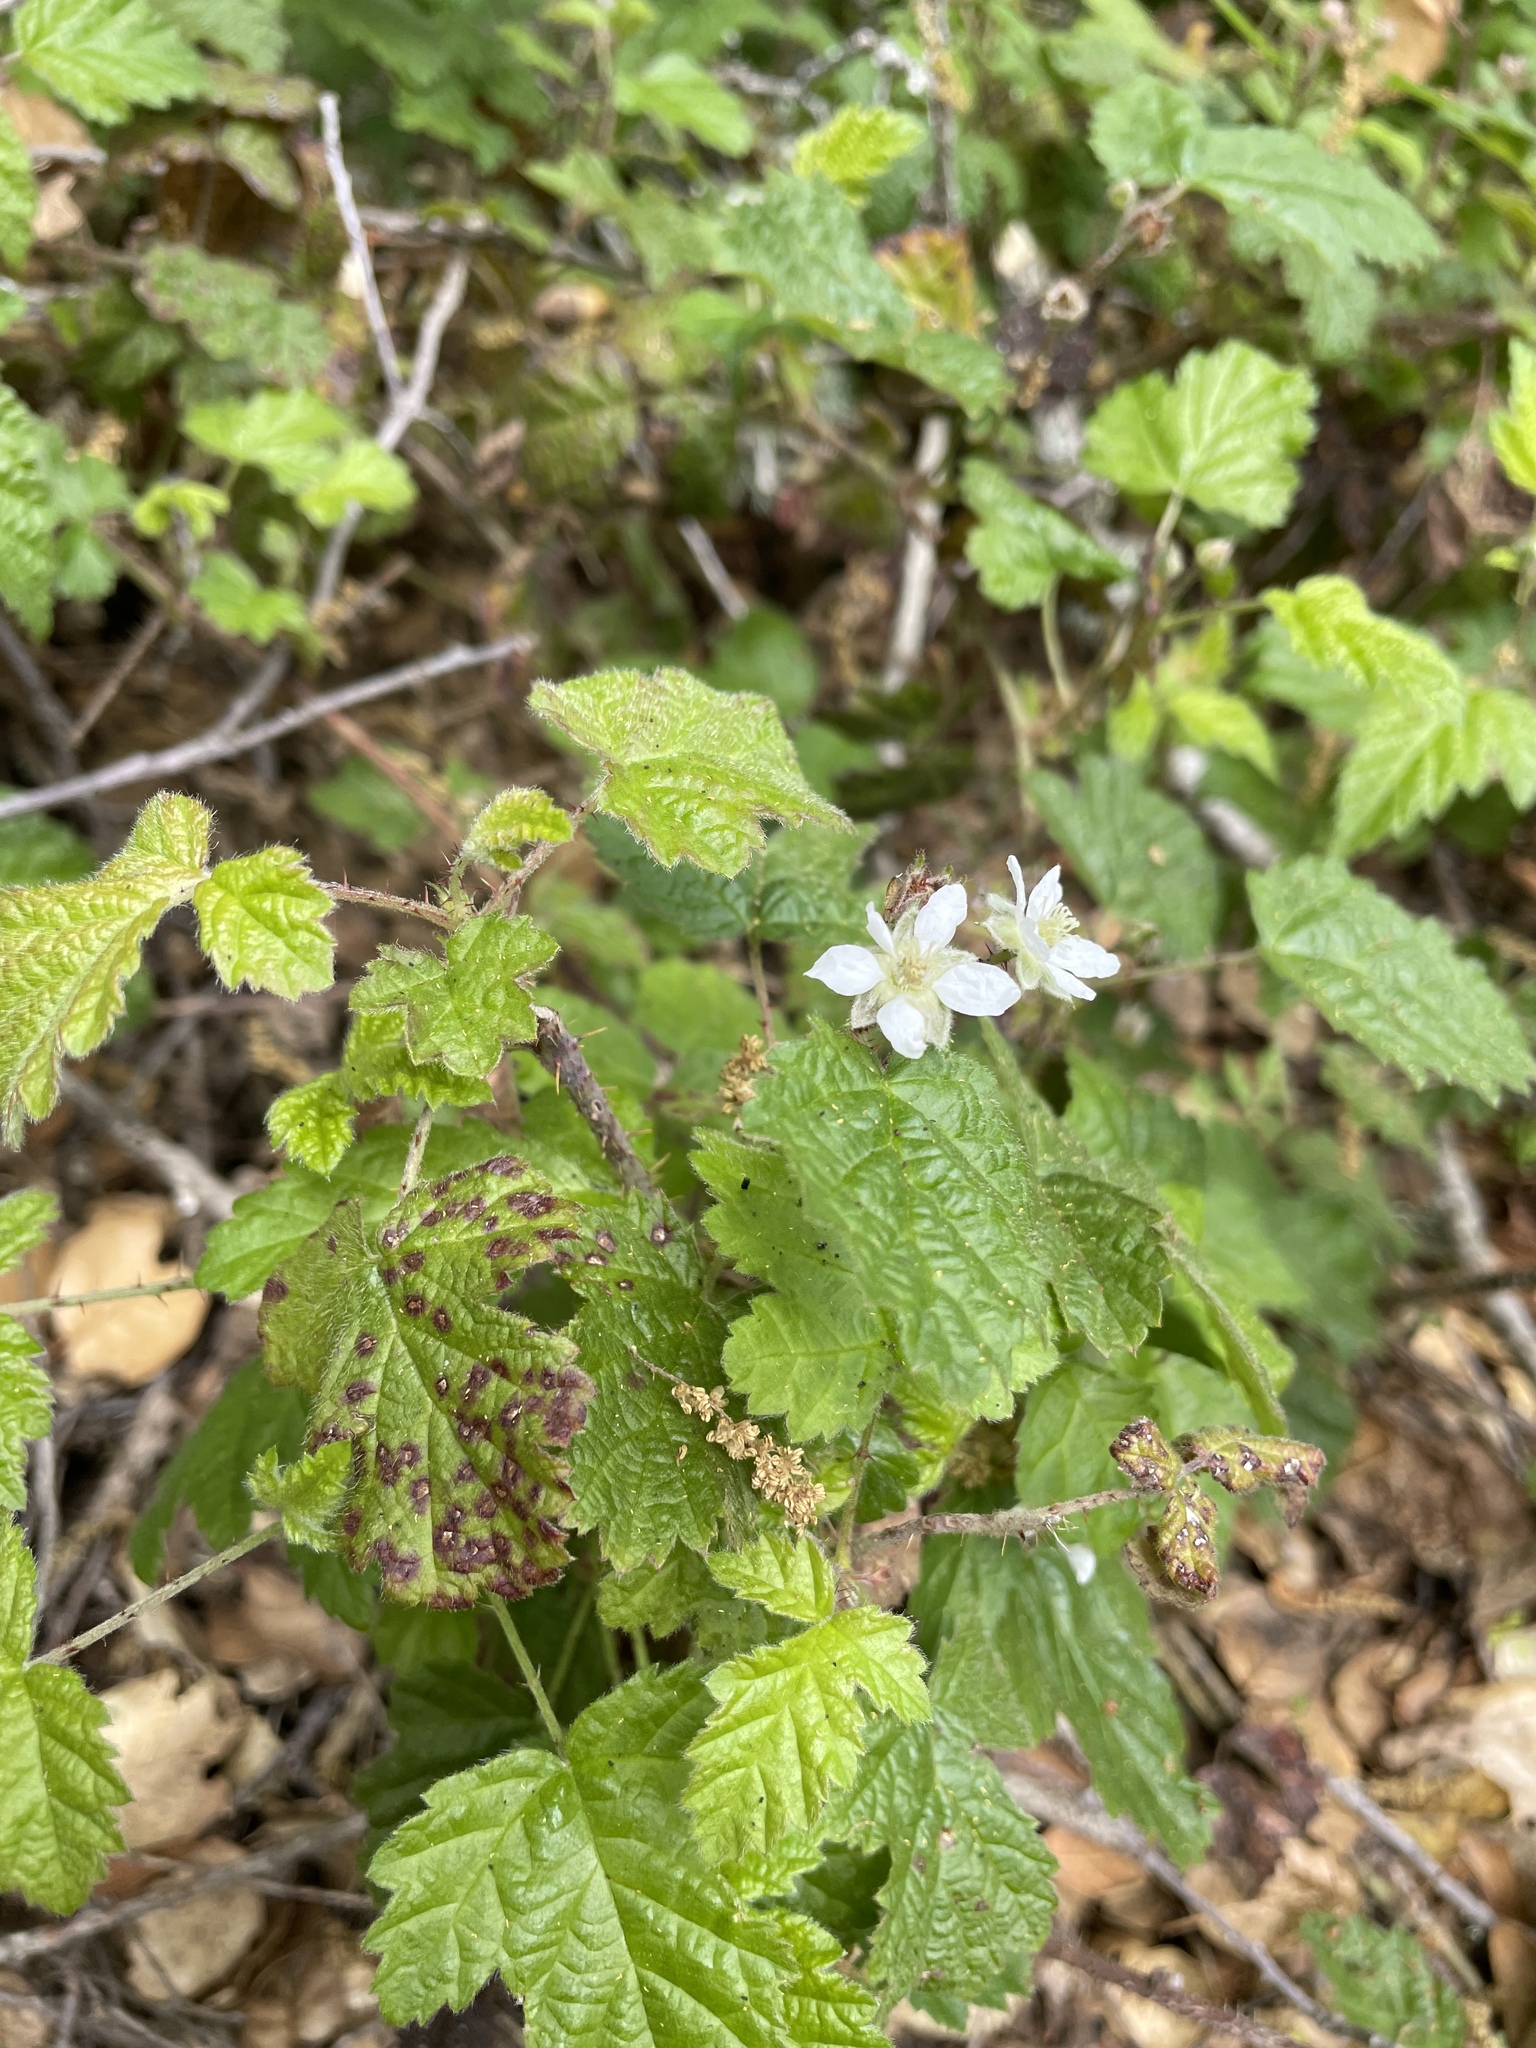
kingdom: Plantae
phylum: Tracheophyta
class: Magnoliopsida
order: Rosales
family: Rosaceae
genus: Rubus
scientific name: Rubus ursinus
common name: Pacific blackberry
